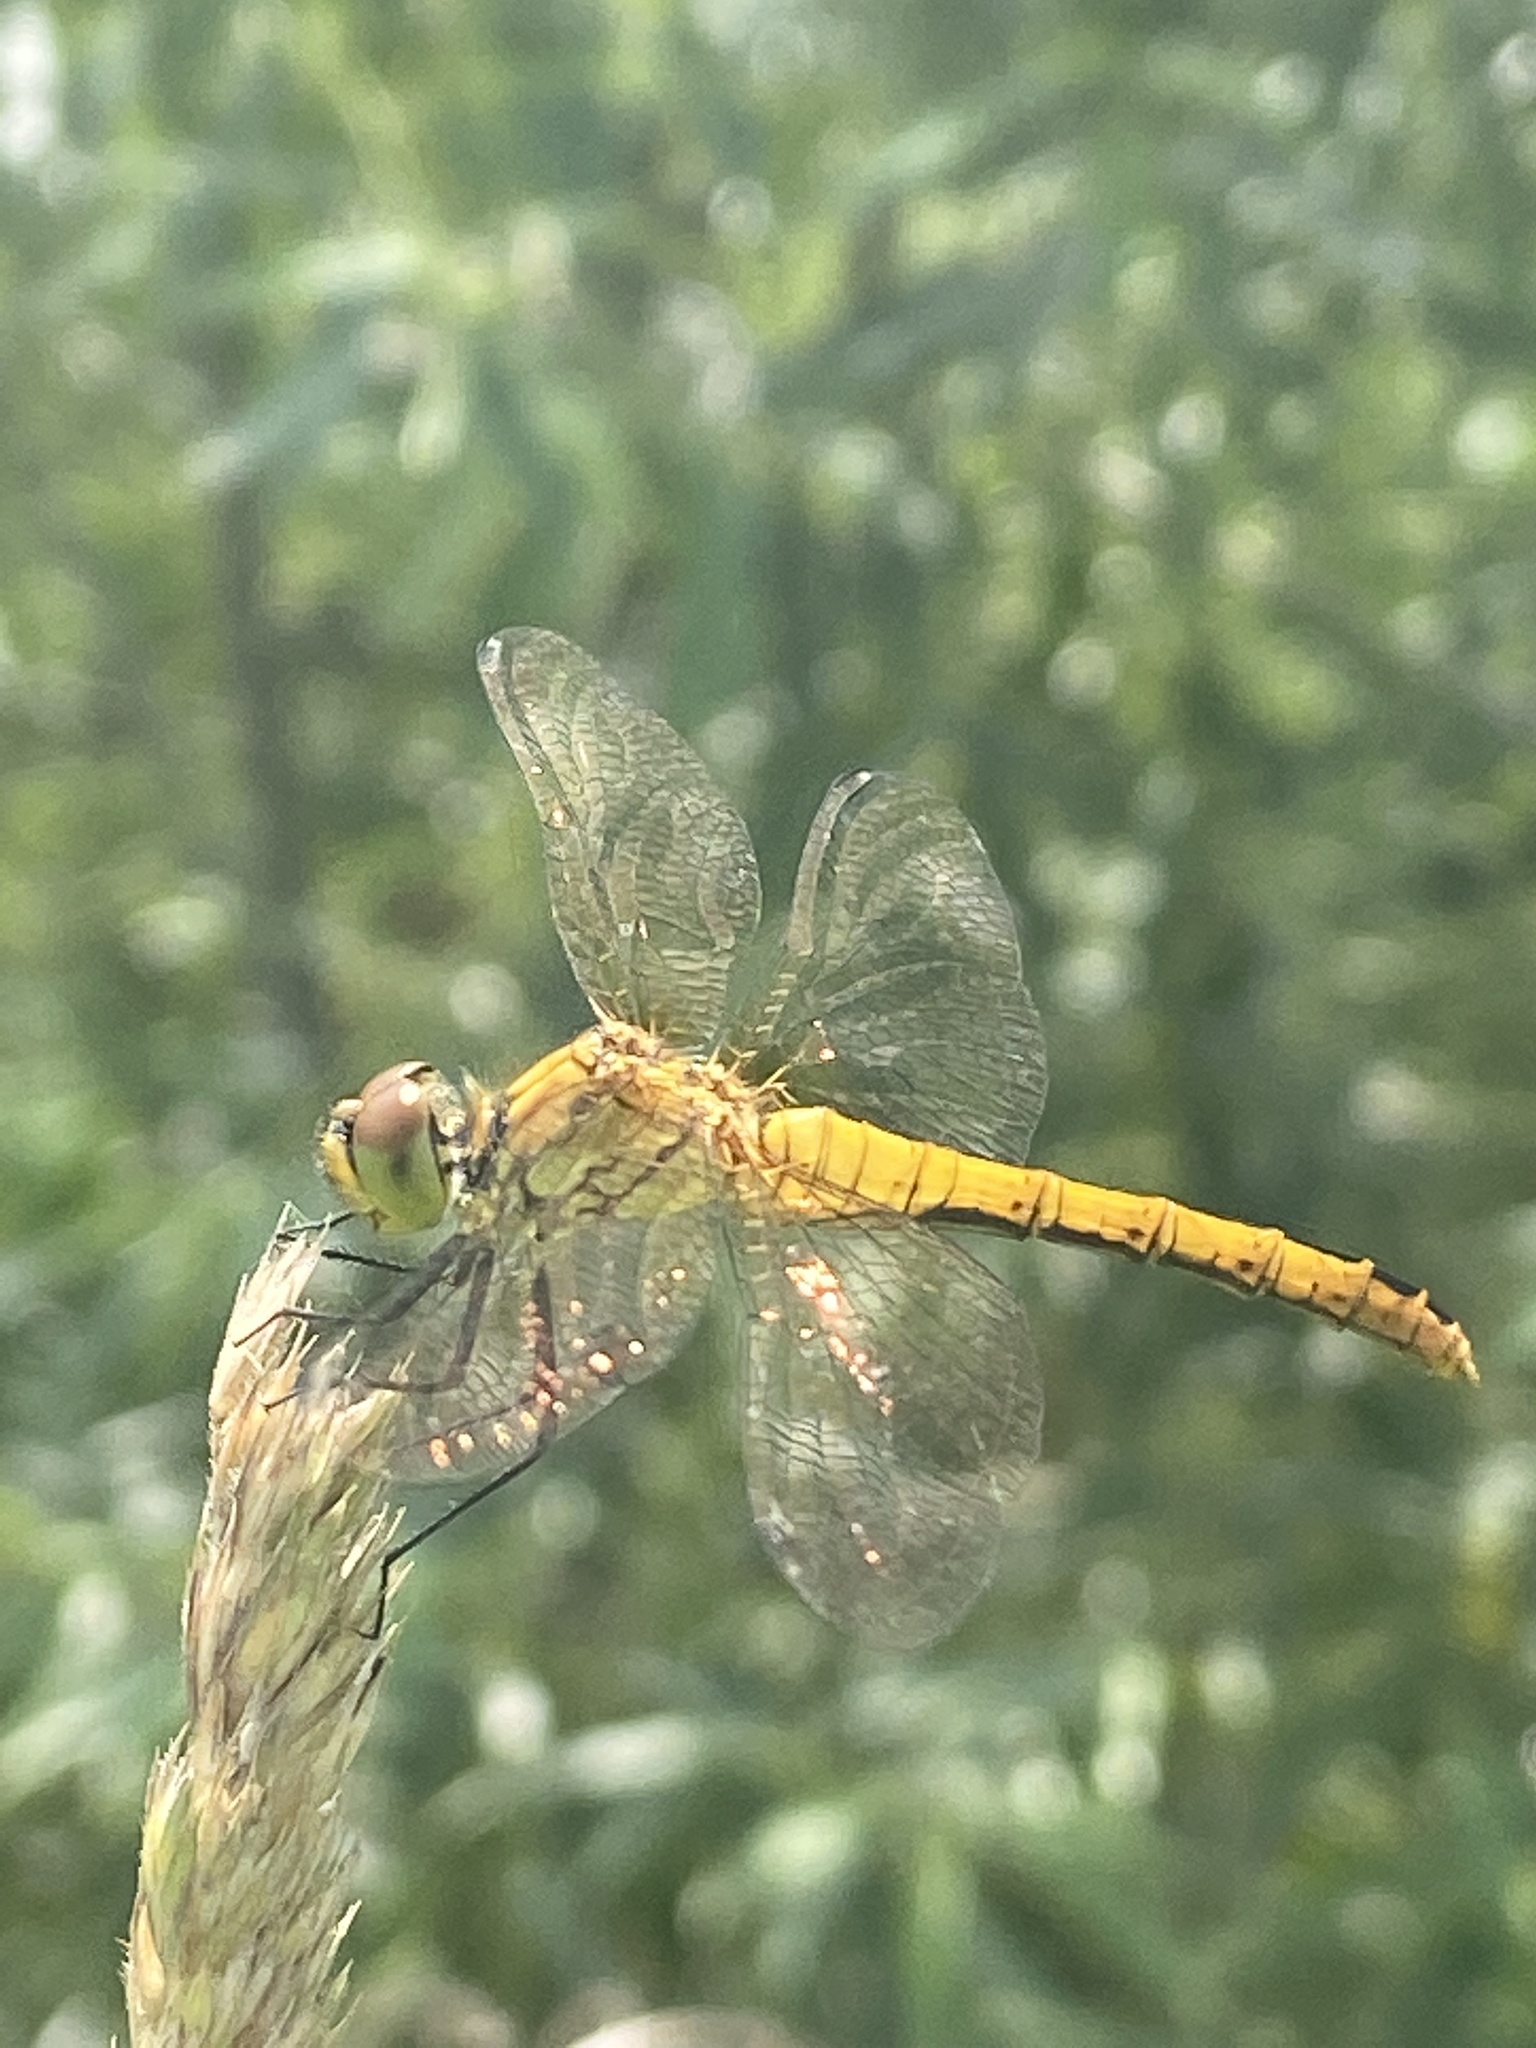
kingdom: Animalia
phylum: Arthropoda
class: Insecta
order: Odonata
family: Libellulidae
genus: Sympetrum
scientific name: Sympetrum sanguineum
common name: Ruddy darter
